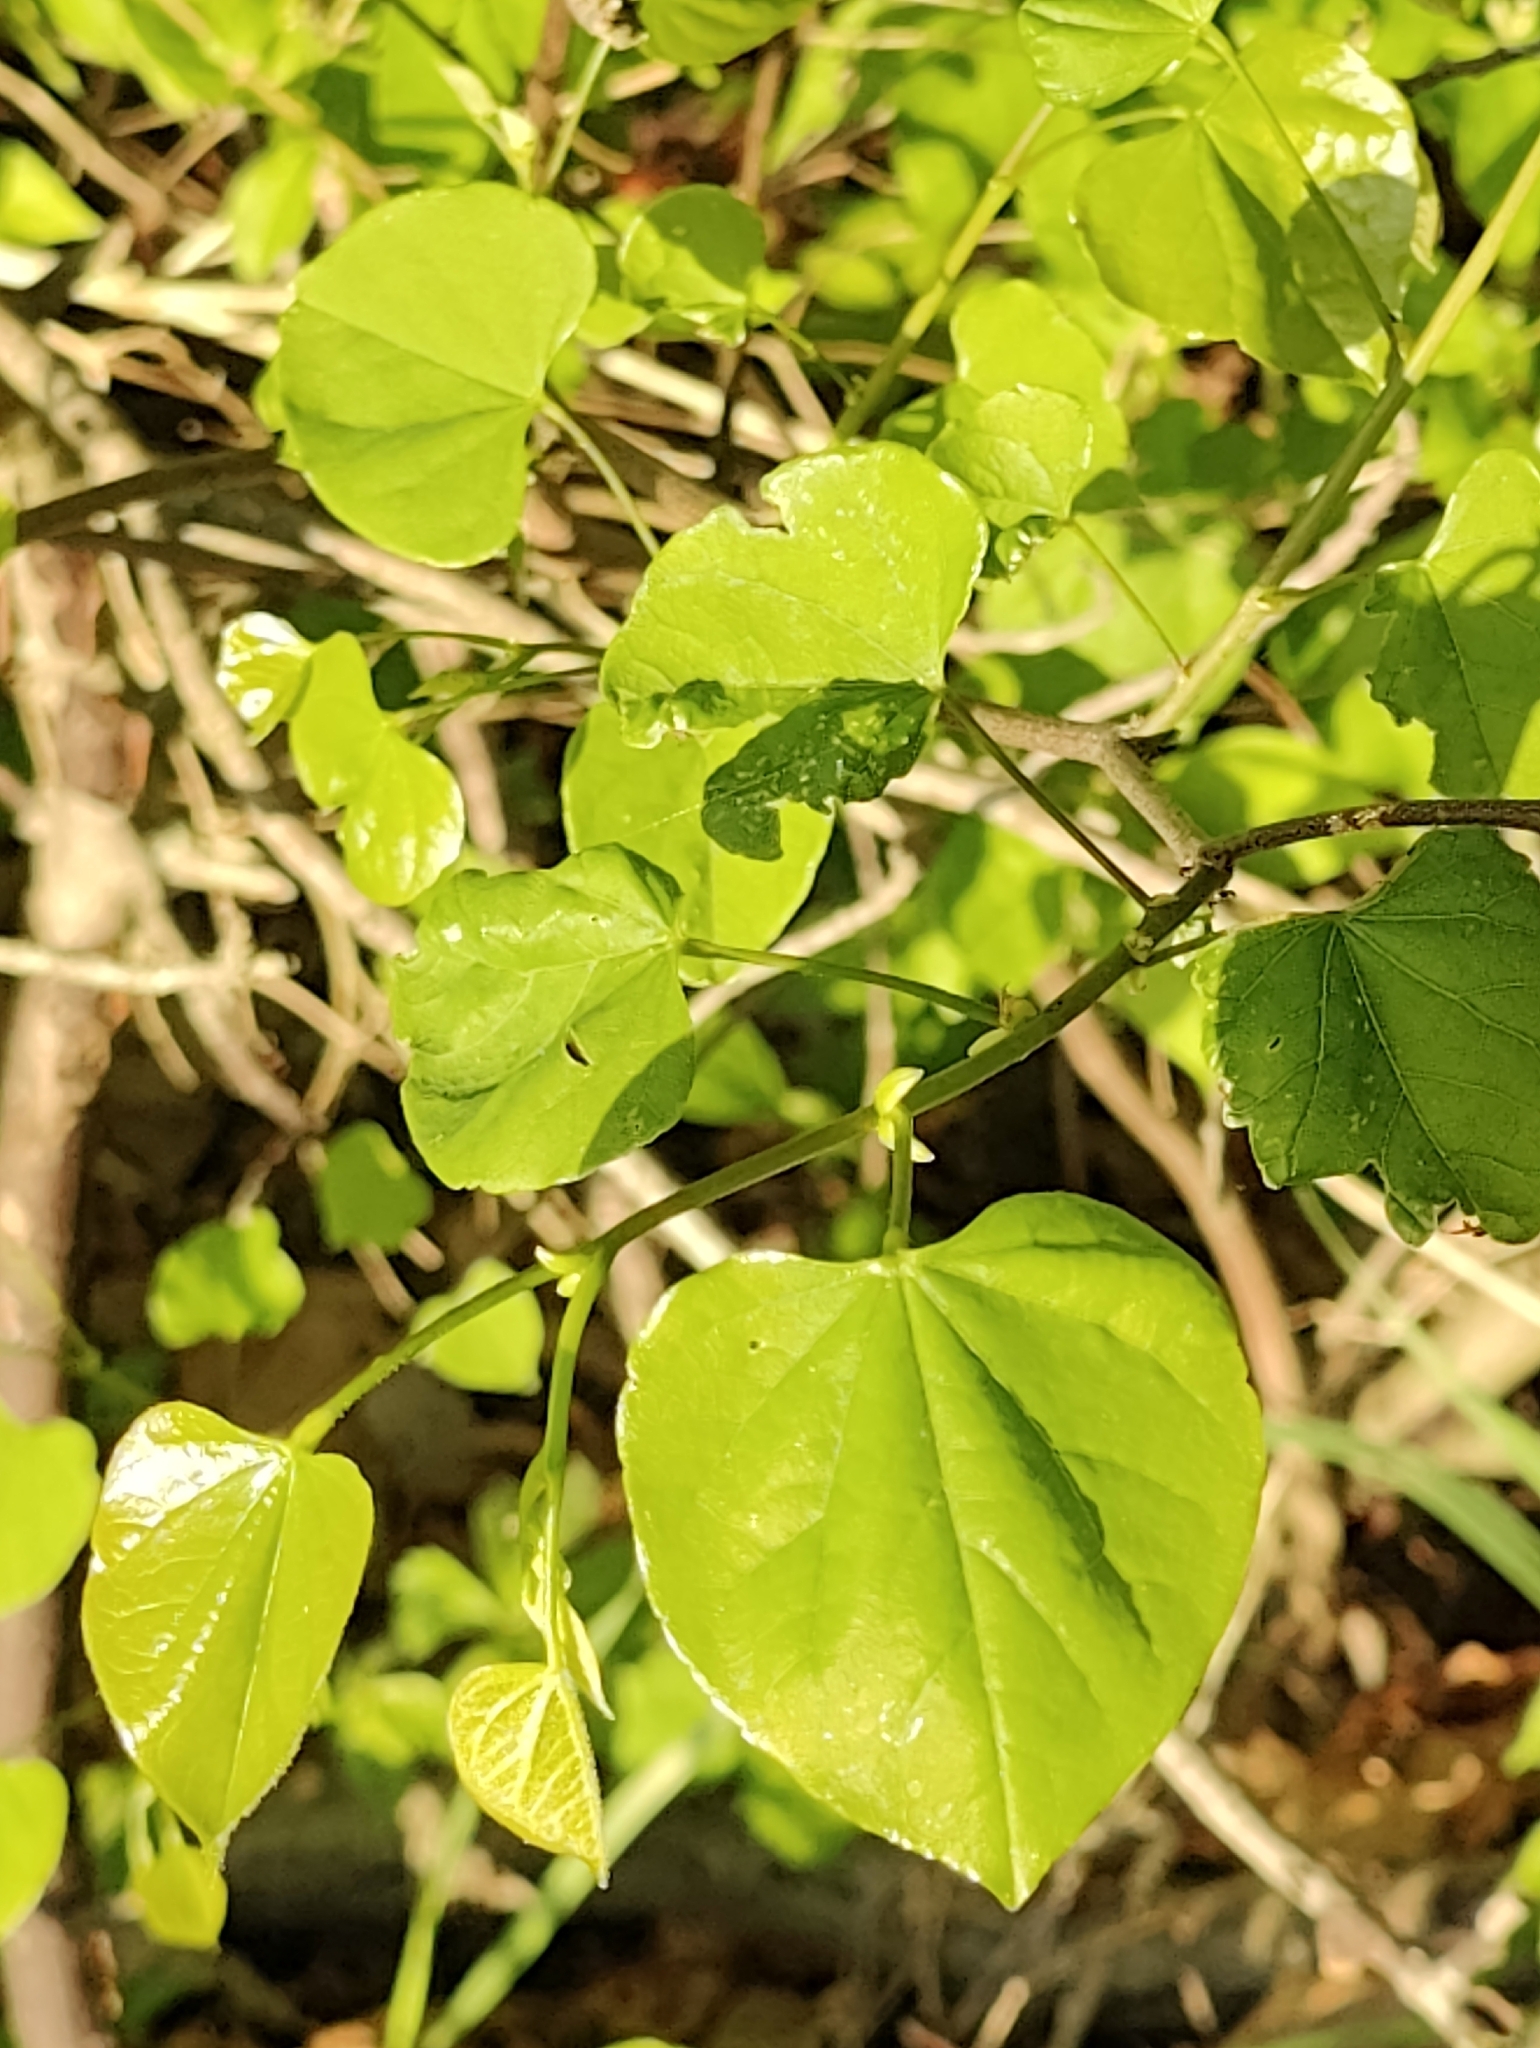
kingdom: Plantae
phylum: Tracheophyta
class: Magnoliopsida
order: Fabales
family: Fabaceae
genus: Cercis
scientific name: Cercis canadensis
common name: Eastern redbud
